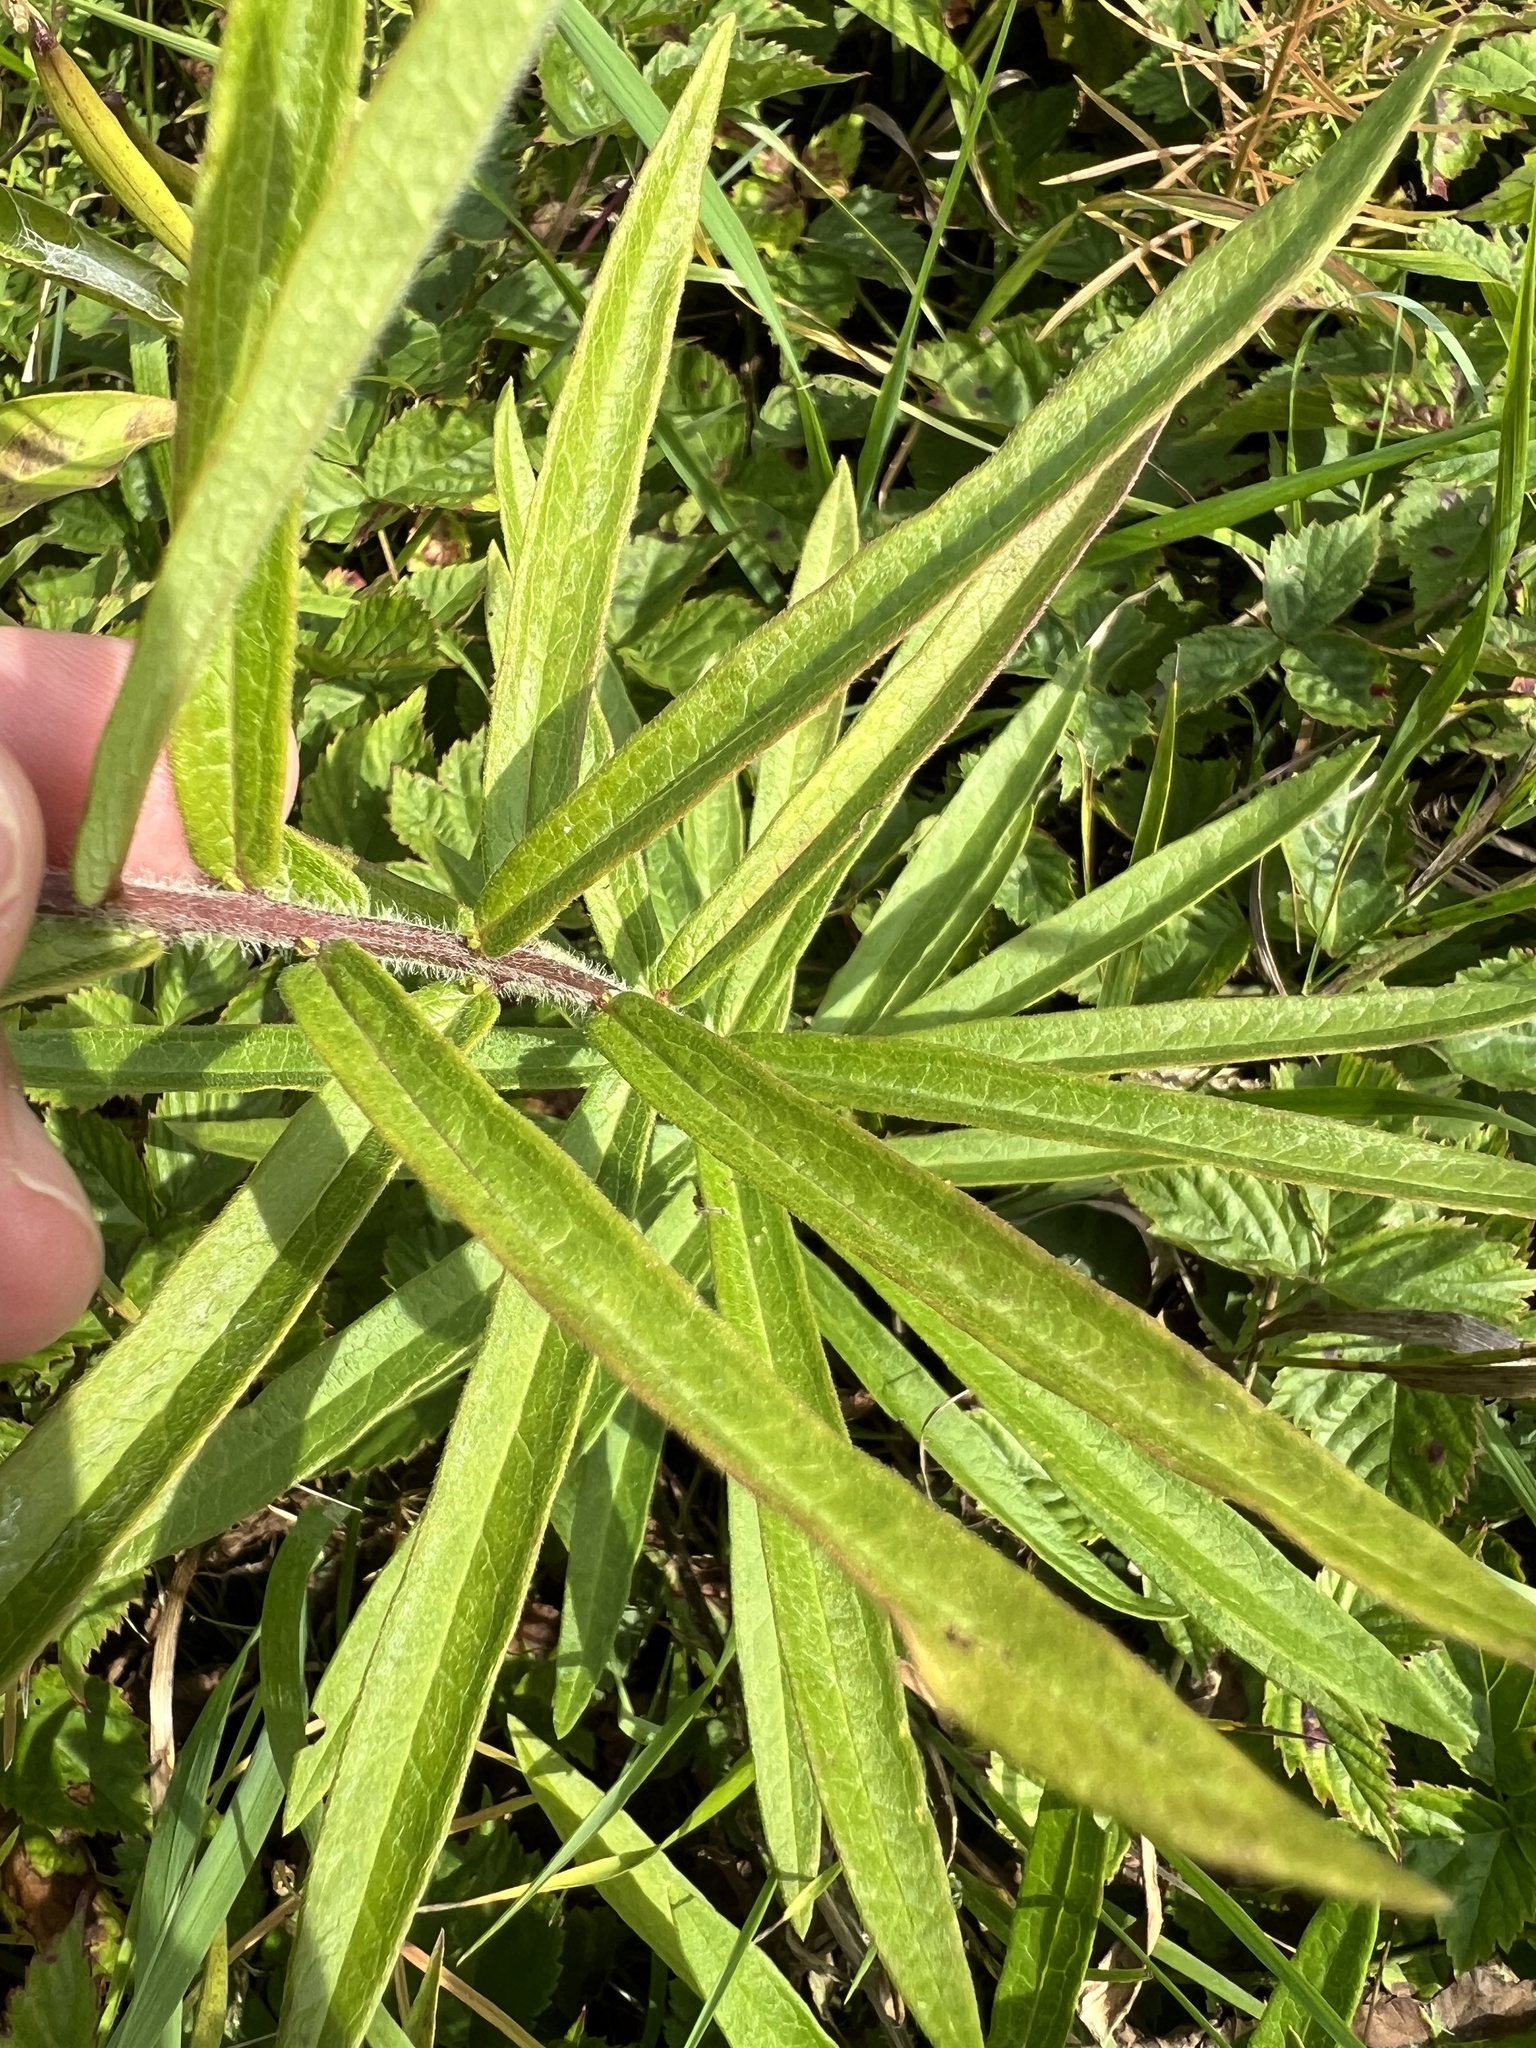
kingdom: Plantae
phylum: Tracheophyta
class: Magnoliopsida
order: Gentianales
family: Apocynaceae
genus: Asclepias
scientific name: Asclepias tuberosa
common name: Butterfly milkweed
